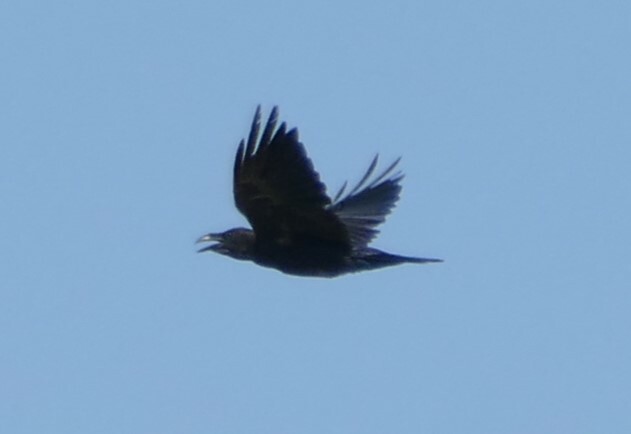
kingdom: Animalia
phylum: Chordata
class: Aves
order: Passeriformes
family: Corvidae
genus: Corvus
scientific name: Corvus corax
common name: Common raven
